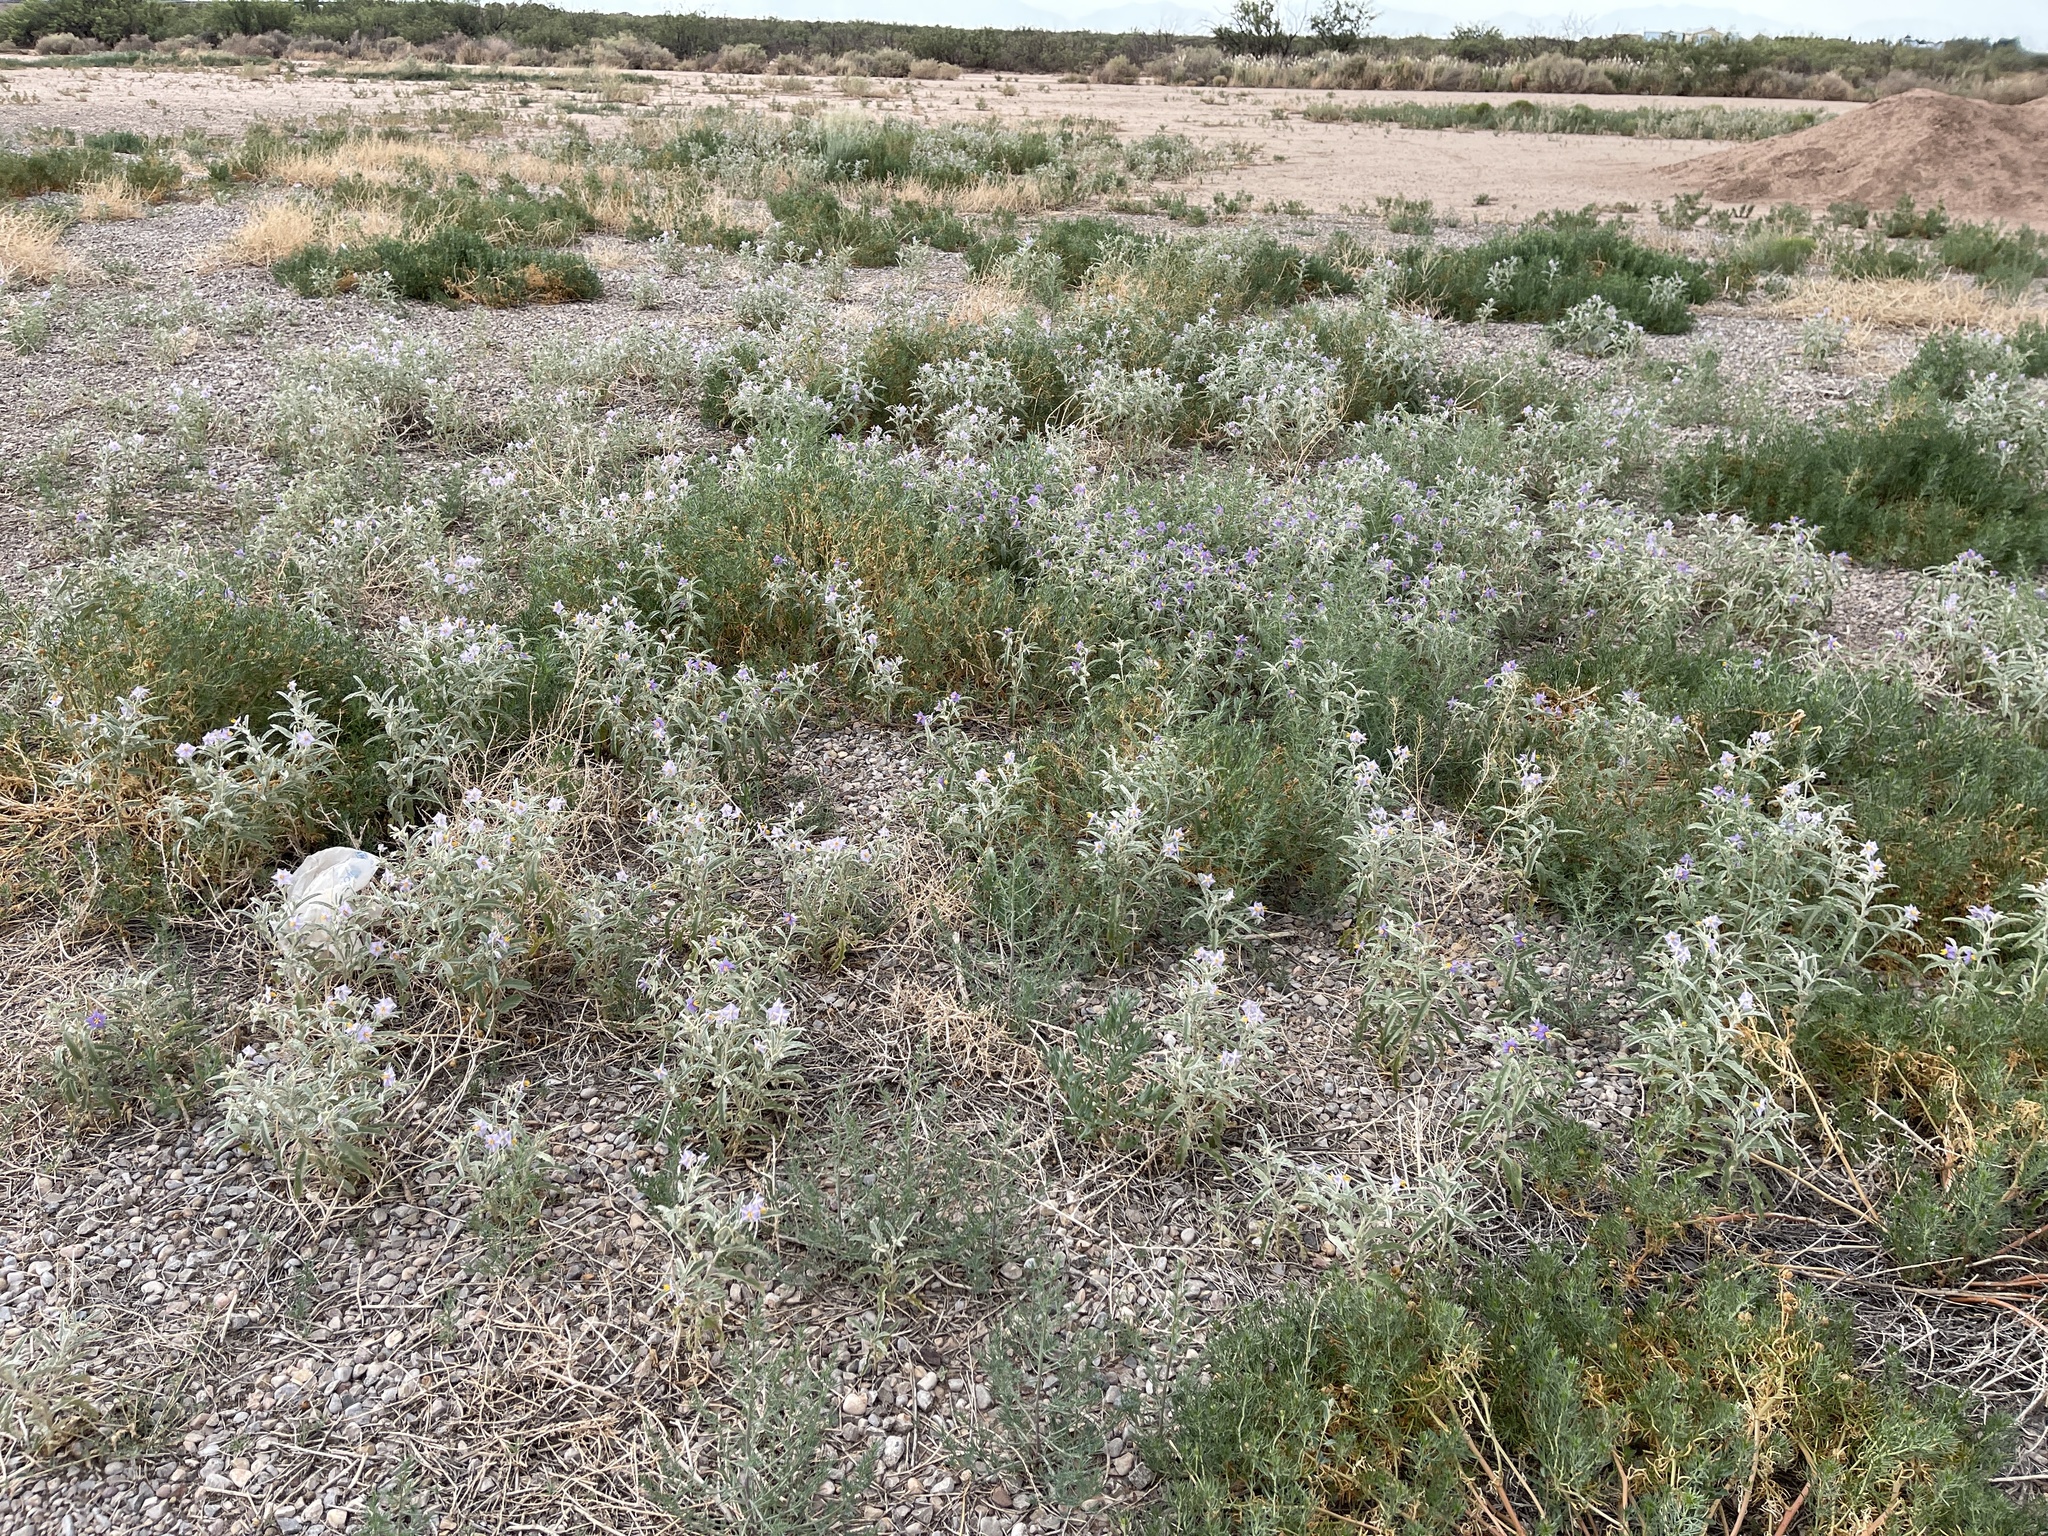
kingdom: Plantae
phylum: Tracheophyta
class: Magnoliopsida
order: Solanales
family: Solanaceae
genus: Solanum
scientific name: Solanum elaeagnifolium
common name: Silverleaf nightshade
